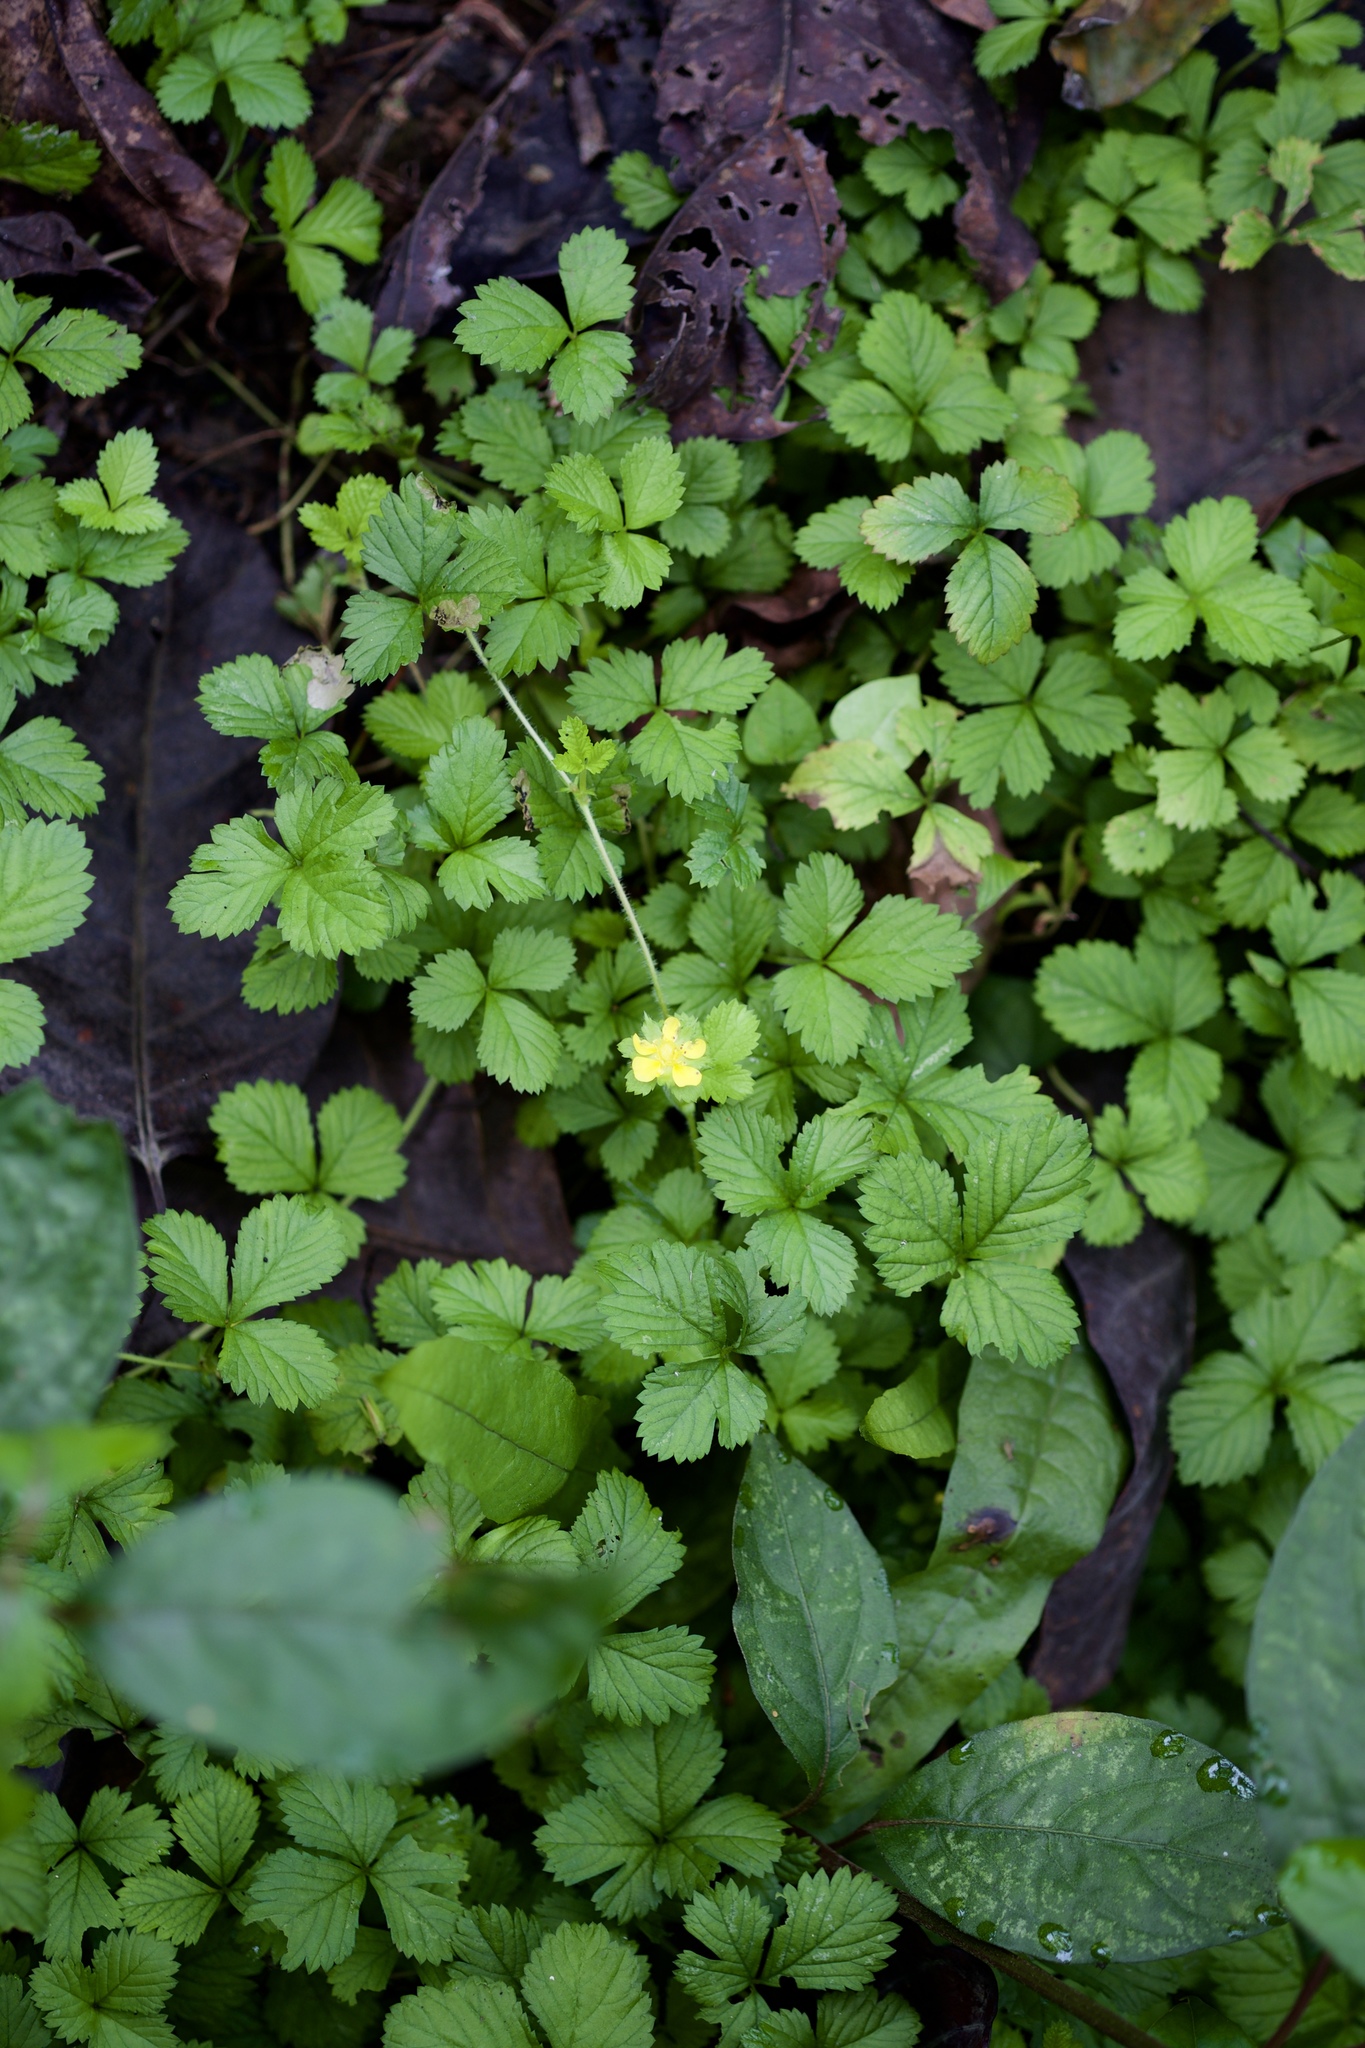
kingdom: Plantae
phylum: Tracheophyta
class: Magnoliopsida
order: Rosales
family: Rosaceae
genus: Potentilla
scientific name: Potentilla indica
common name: Yellow-flowered strawberry
